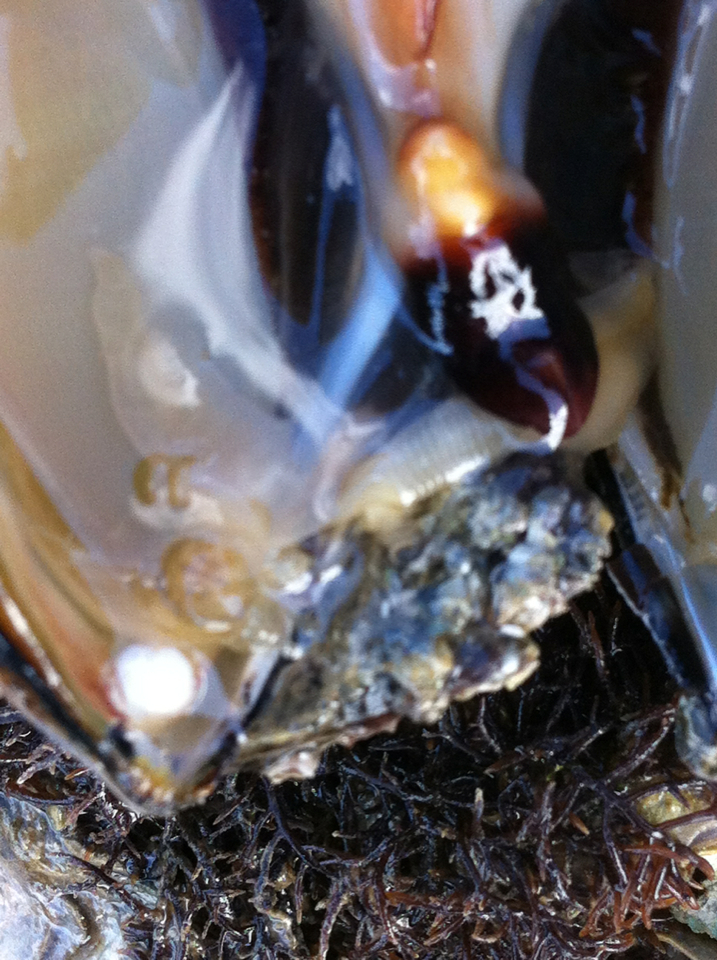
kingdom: Animalia
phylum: Arthropoda
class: Malacostraca
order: Decapoda
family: Pinnotheridae
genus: Nepinnotheres
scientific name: Nepinnotheres novaezelandiae
